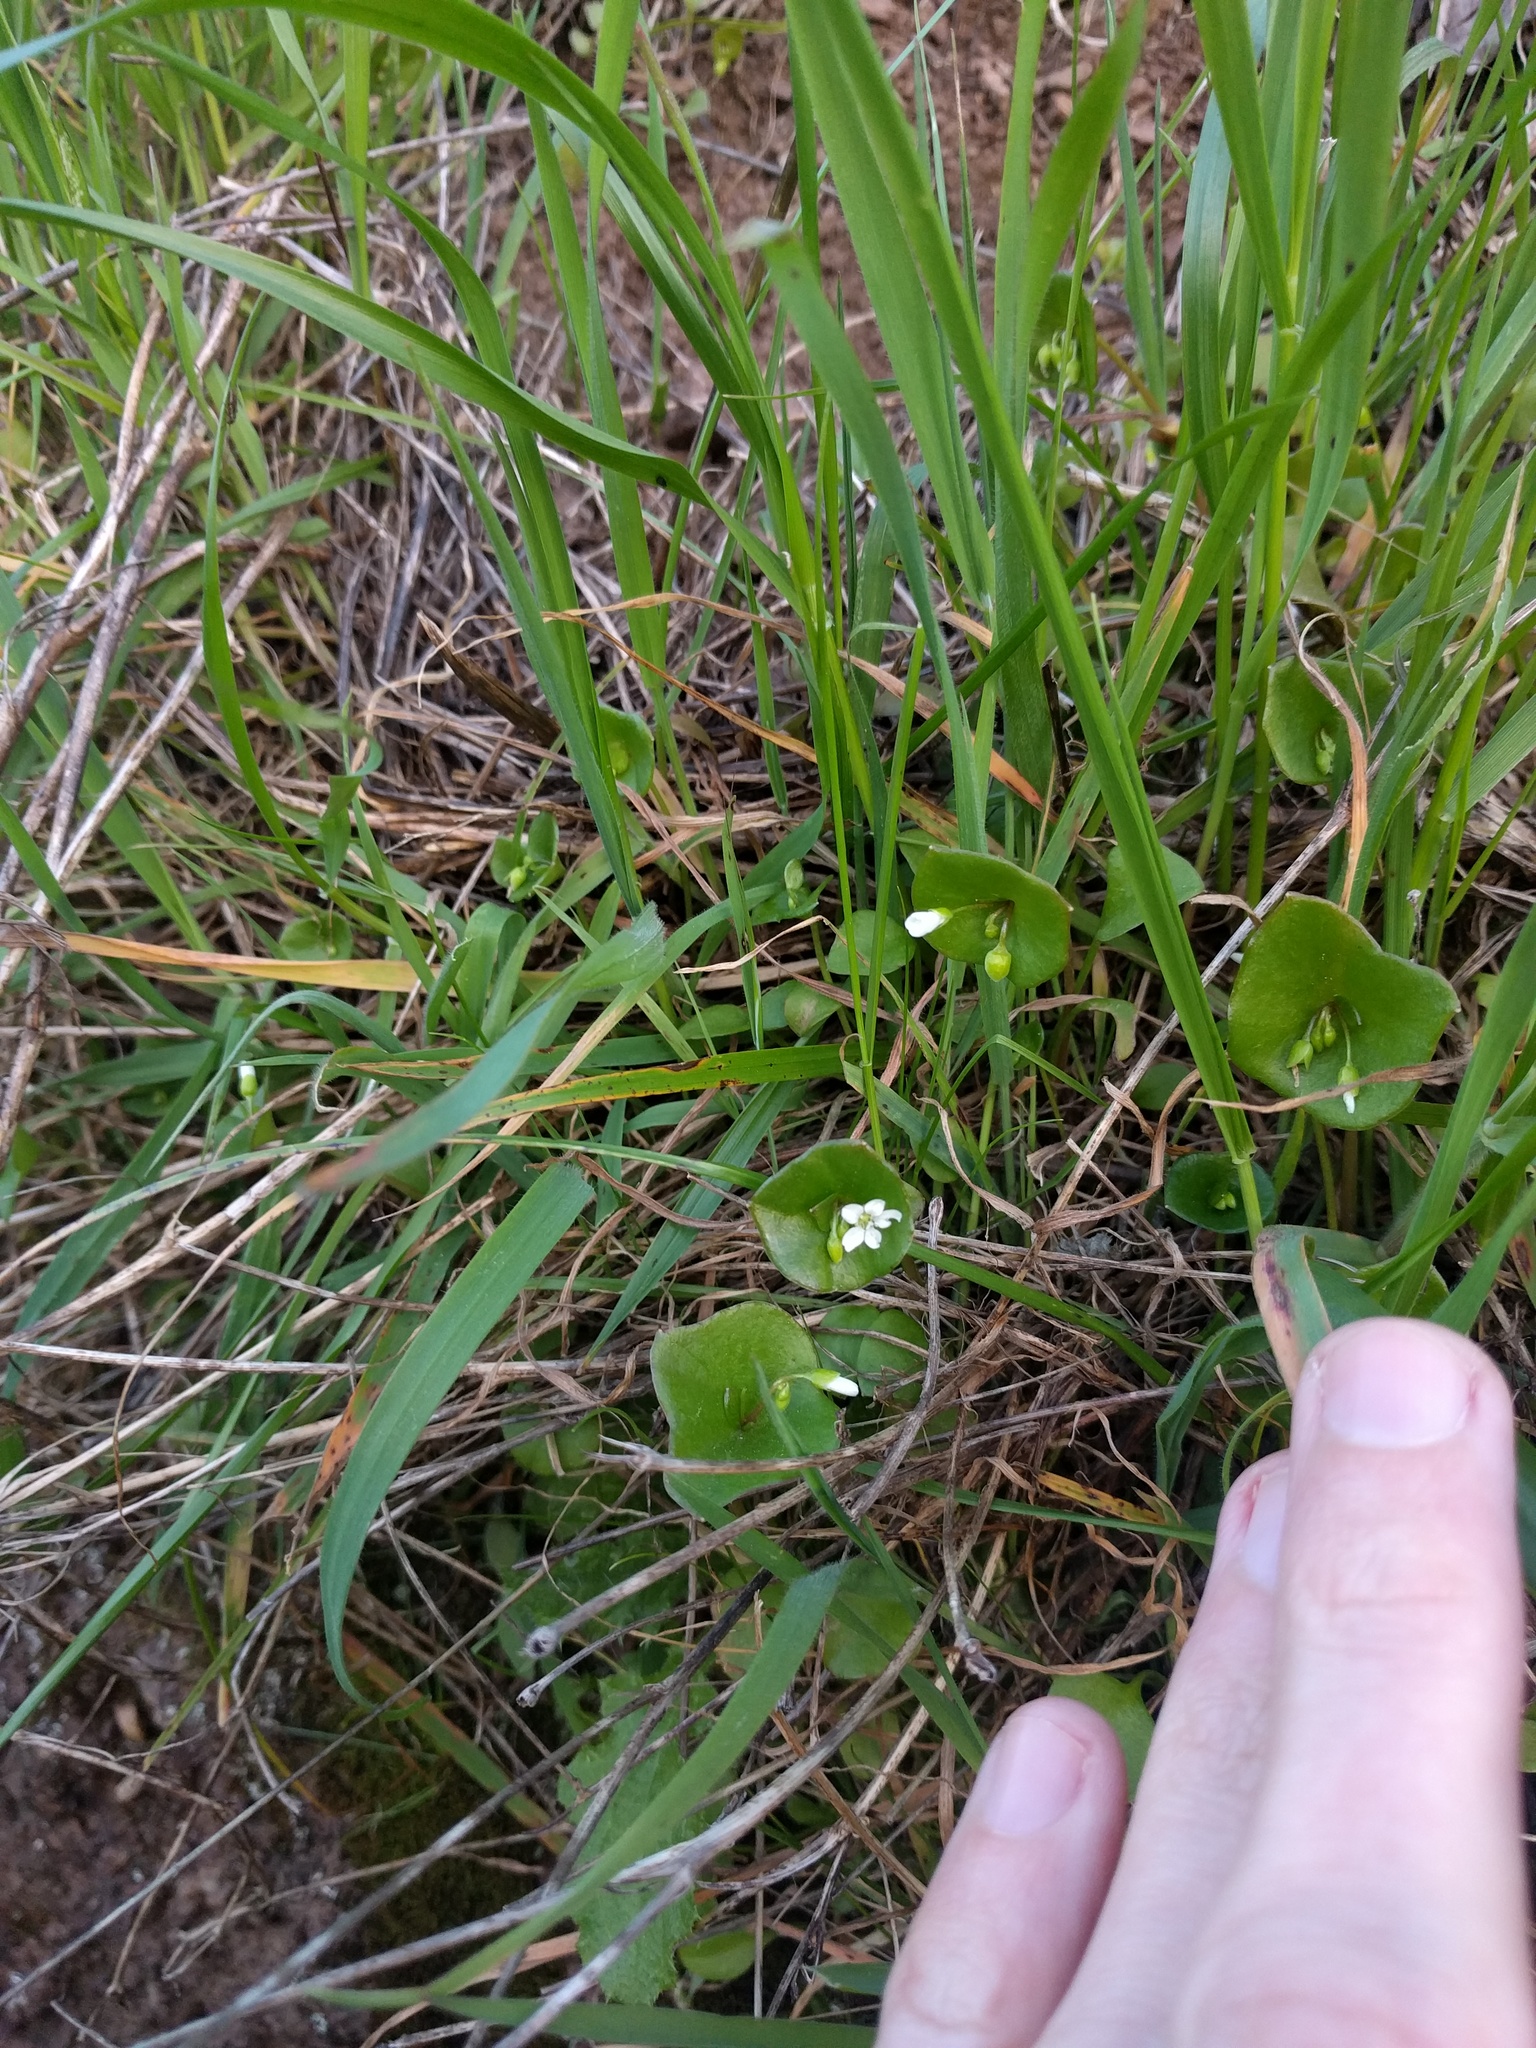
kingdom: Plantae
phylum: Tracheophyta
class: Magnoliopsida
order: Caryophyllales
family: Montiaceae
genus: Claytonia
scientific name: Claytonia perfoliata
